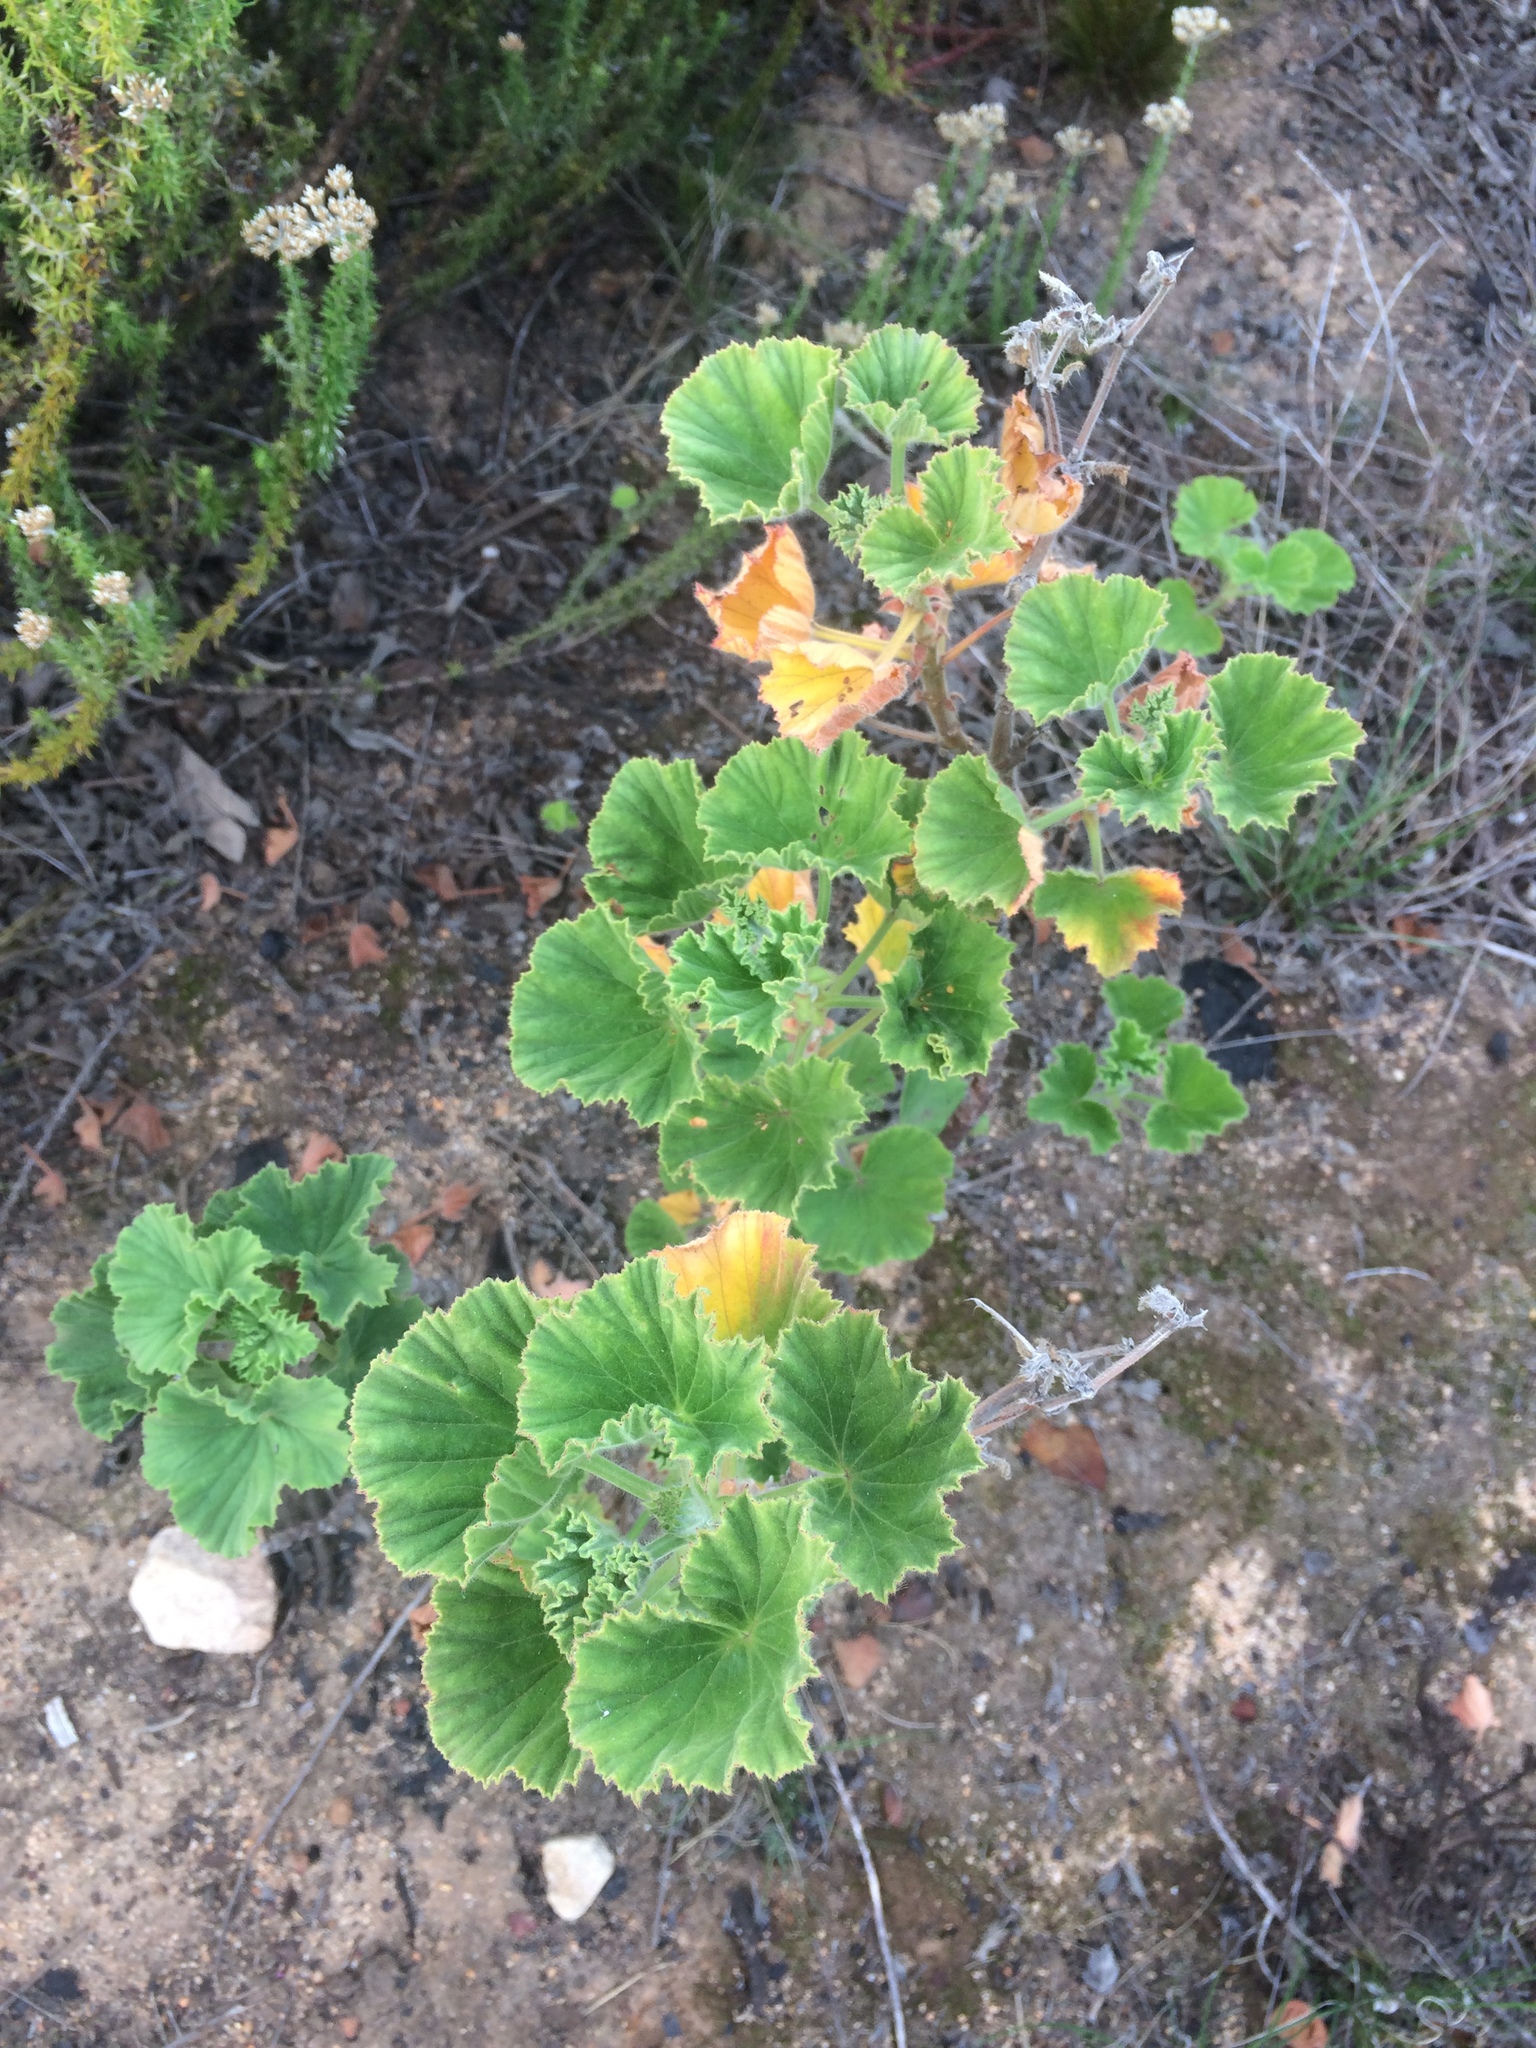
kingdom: Plantae
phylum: Tracheophyta
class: Magnoliopsida
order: Geraniales
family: Geraniaceae
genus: Pelargonium
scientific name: Pelargonium cucullatum
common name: Tree pelargonium
